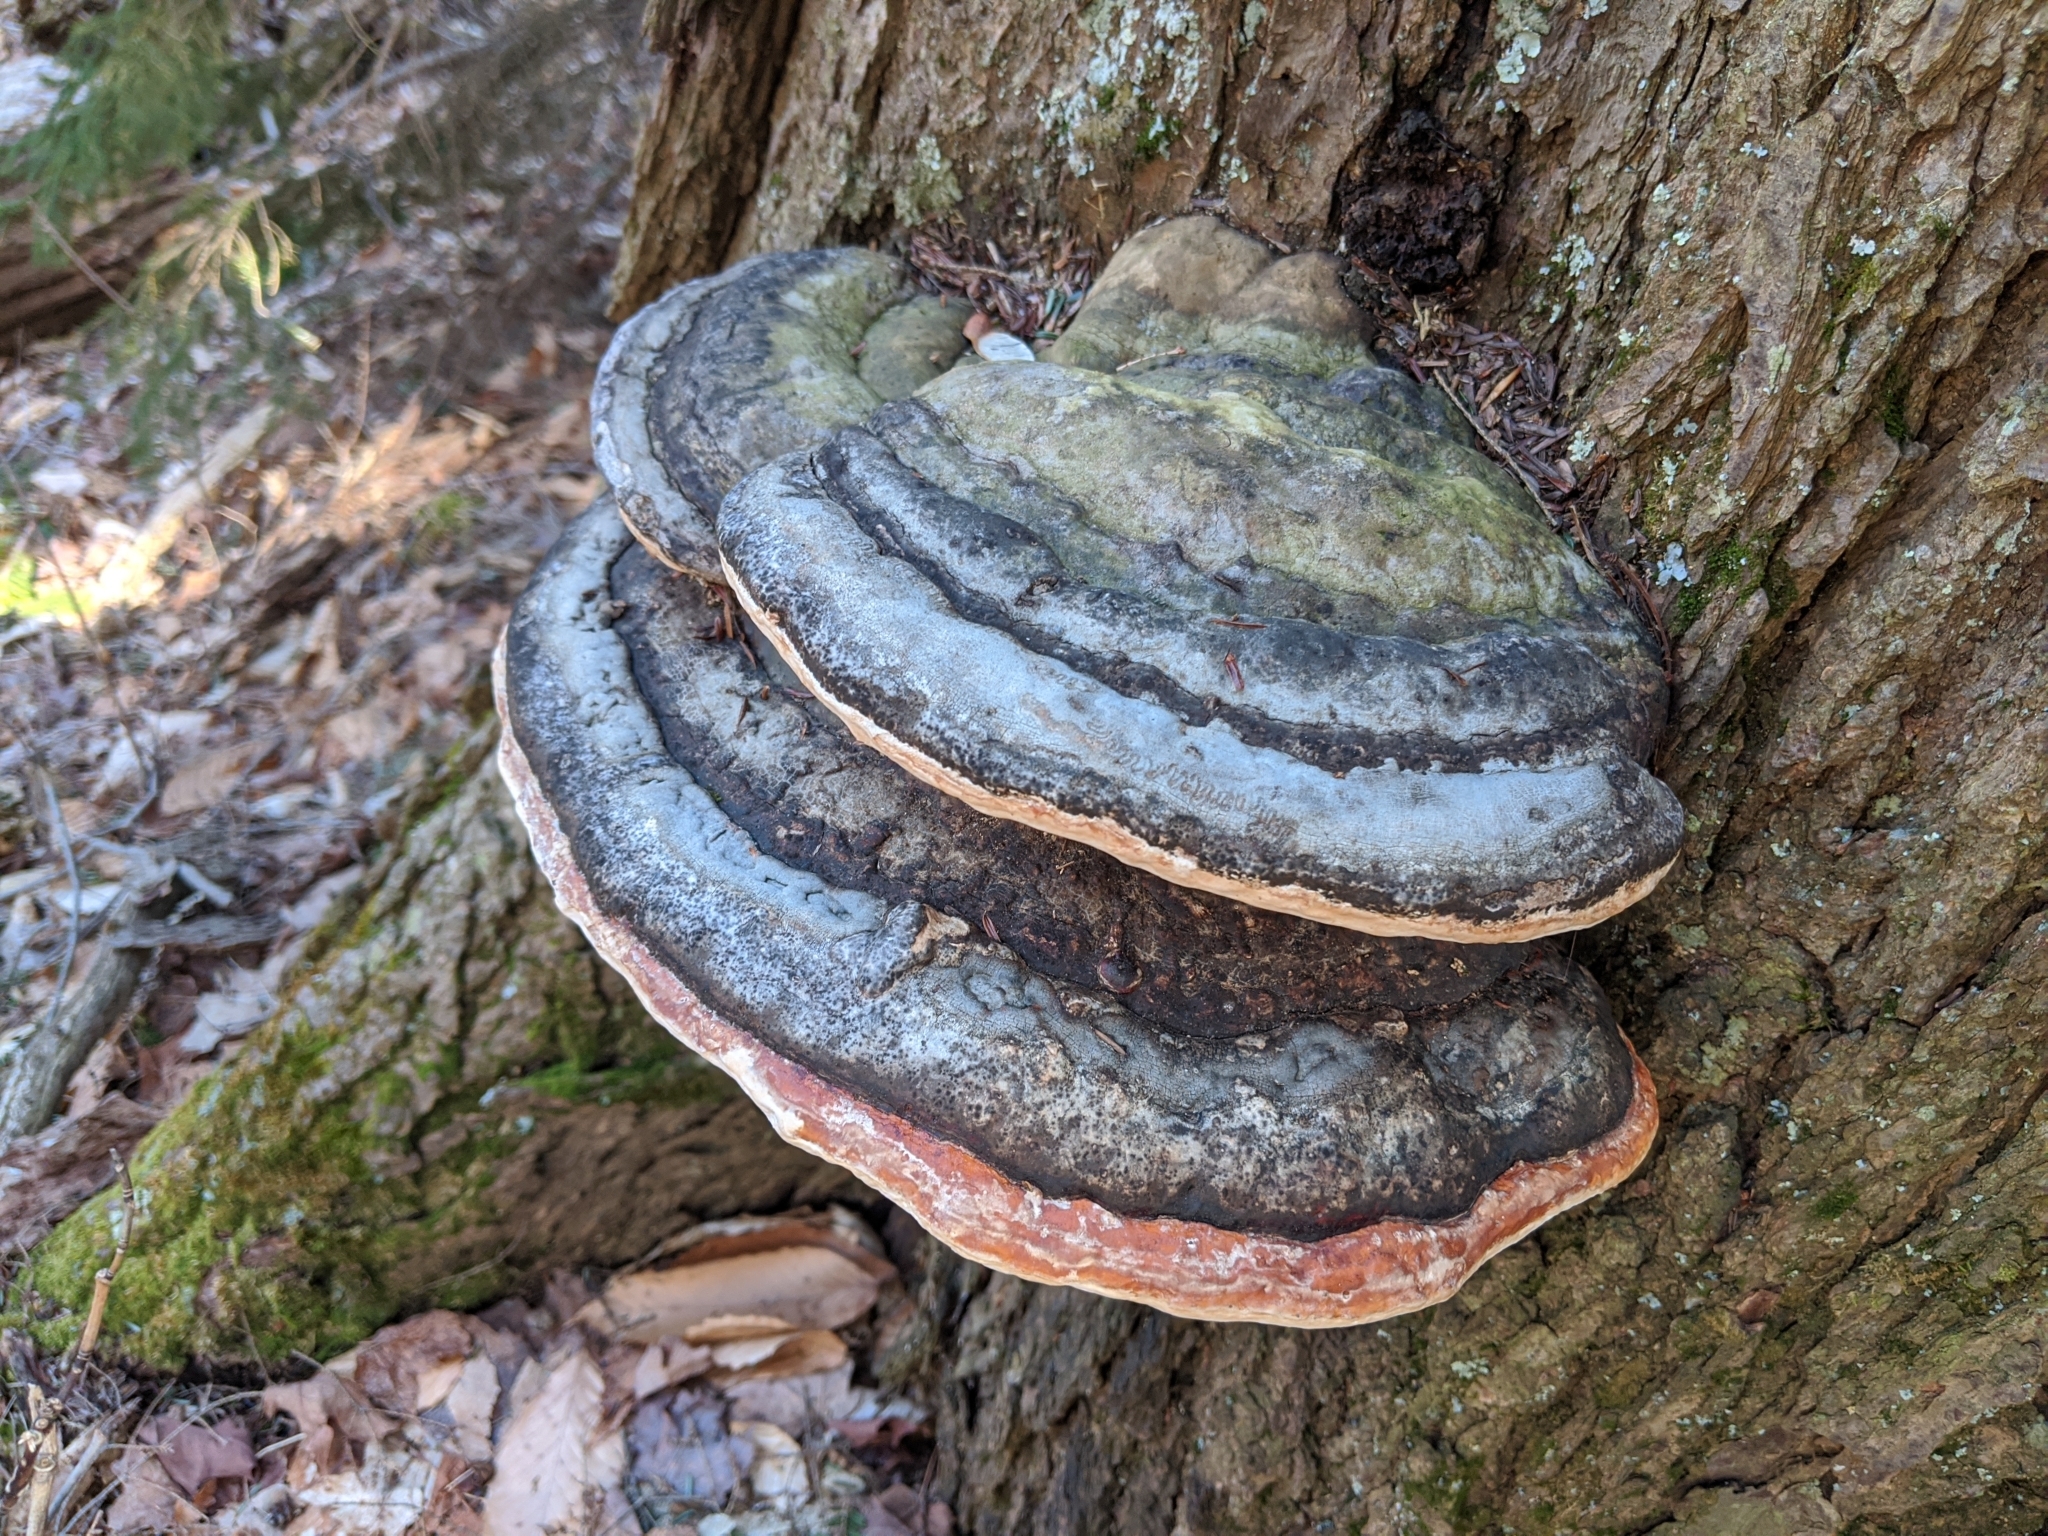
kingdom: Fungi
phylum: Basidiomycota
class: Agaricomycetes
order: Polyporales
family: Fomitopsidaceae
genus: Fomitopsis
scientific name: Fomitopsis mounceae
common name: Northern red belt
